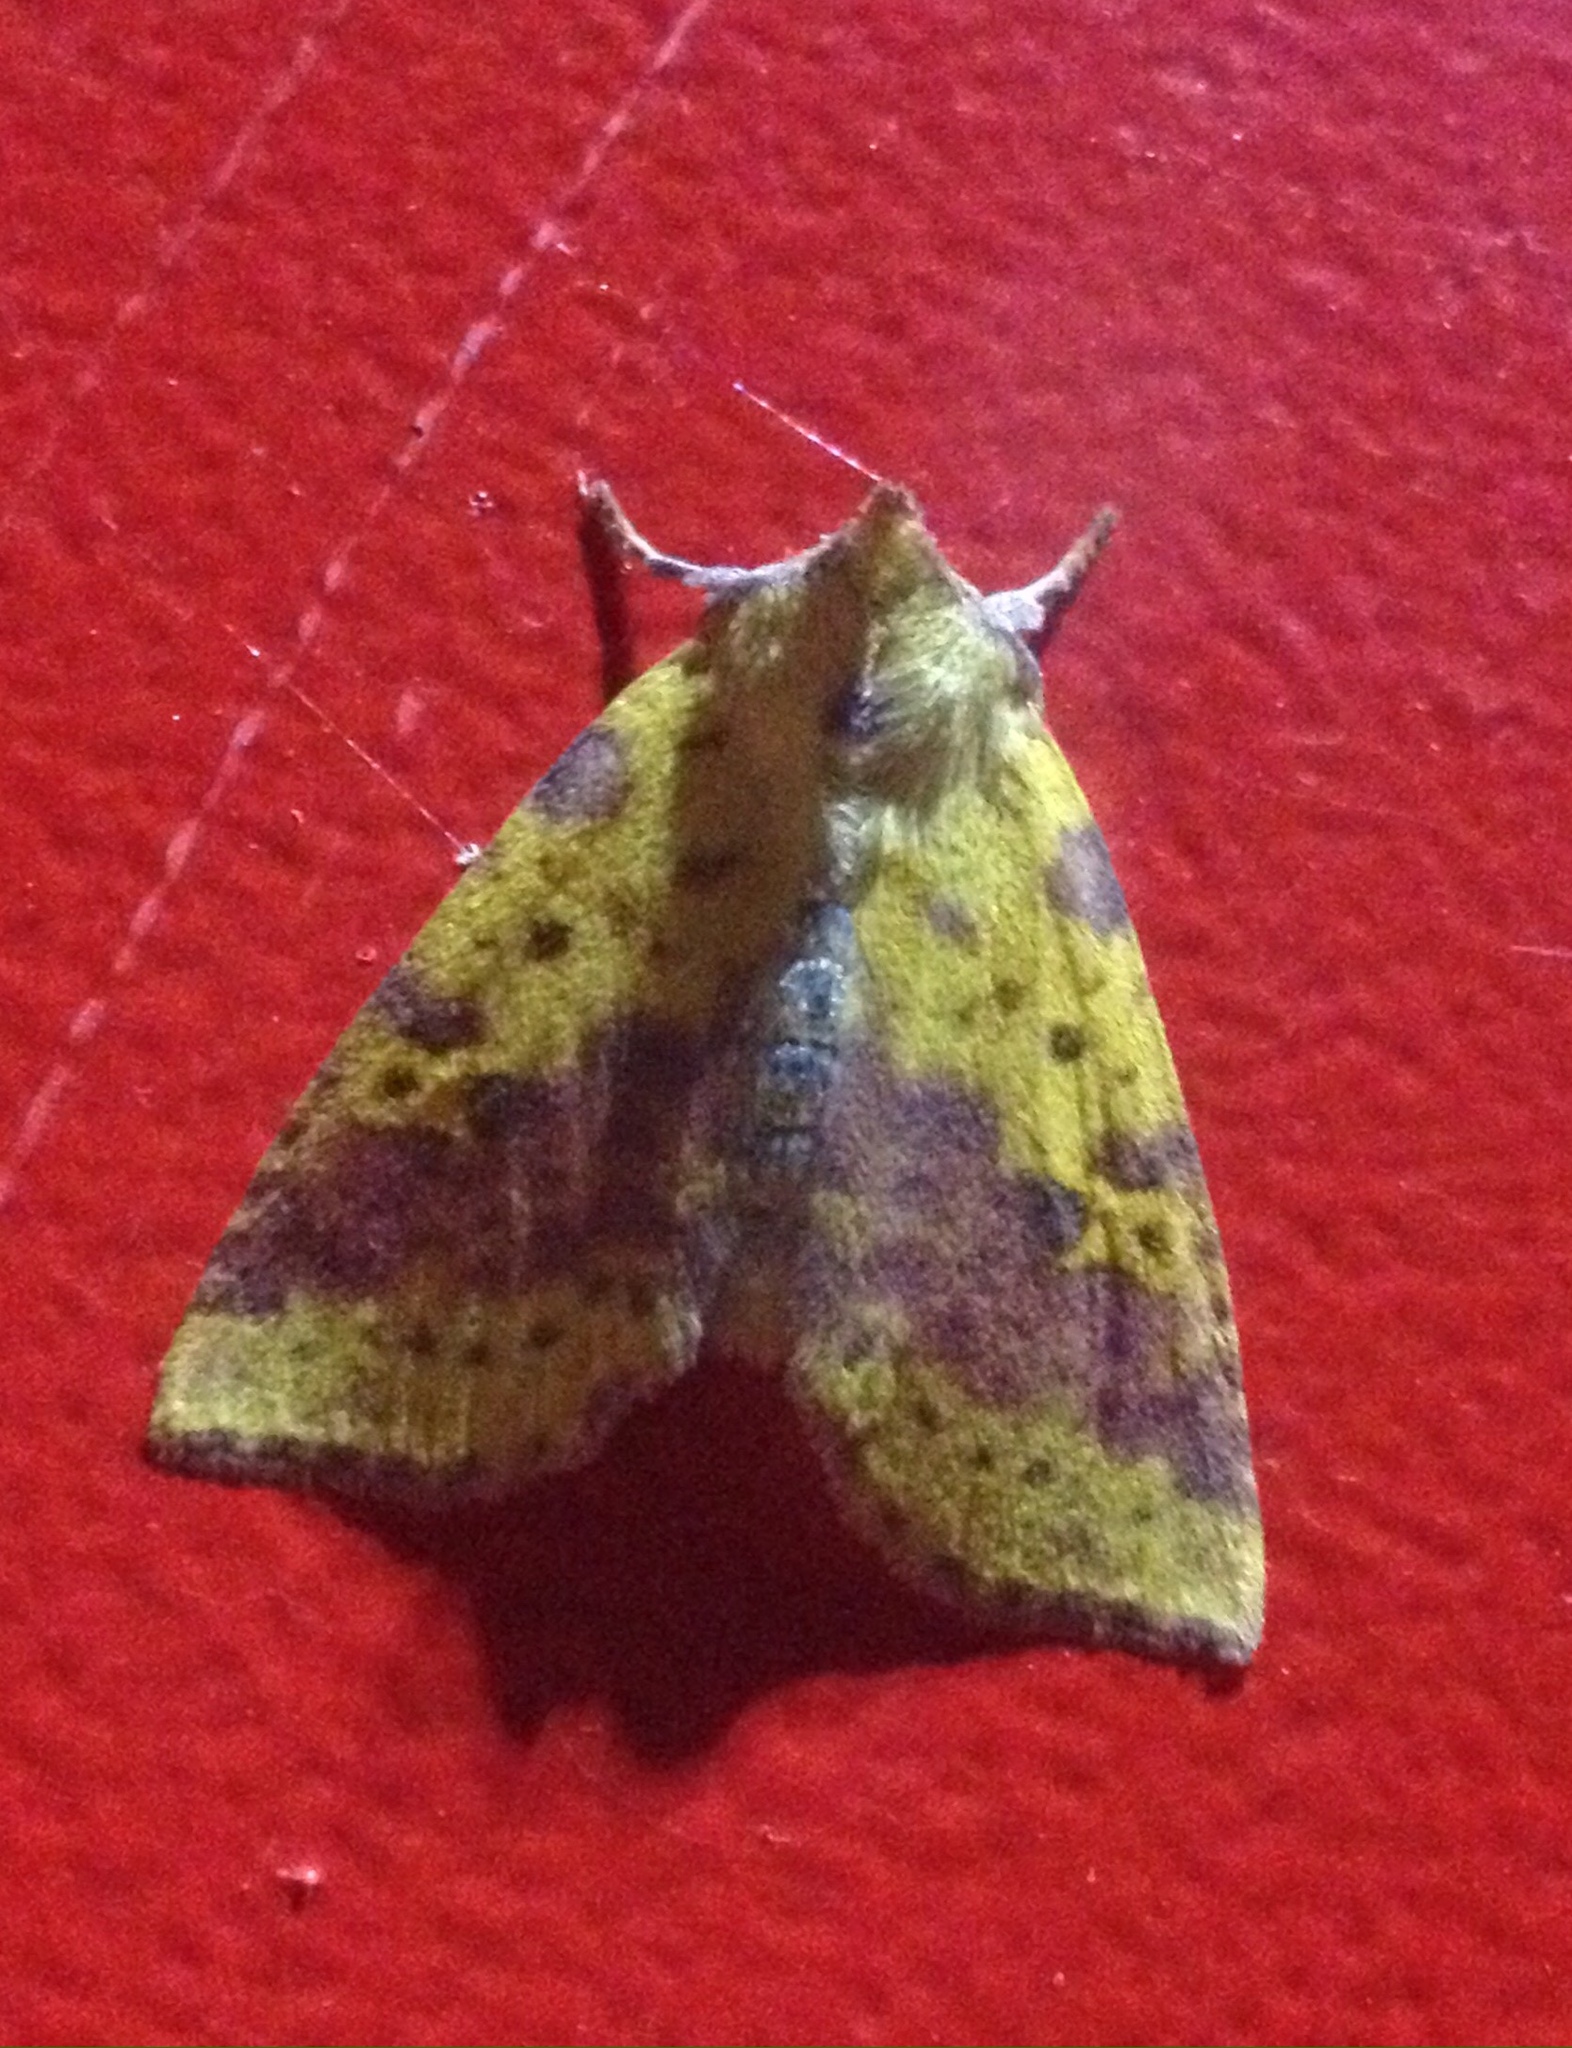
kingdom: Animalia
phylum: Arthropoda
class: Insecta
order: Lepidoptera
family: Noctuidae
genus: Xanthia
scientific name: Xanthia togata
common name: Pink-barred sallow
